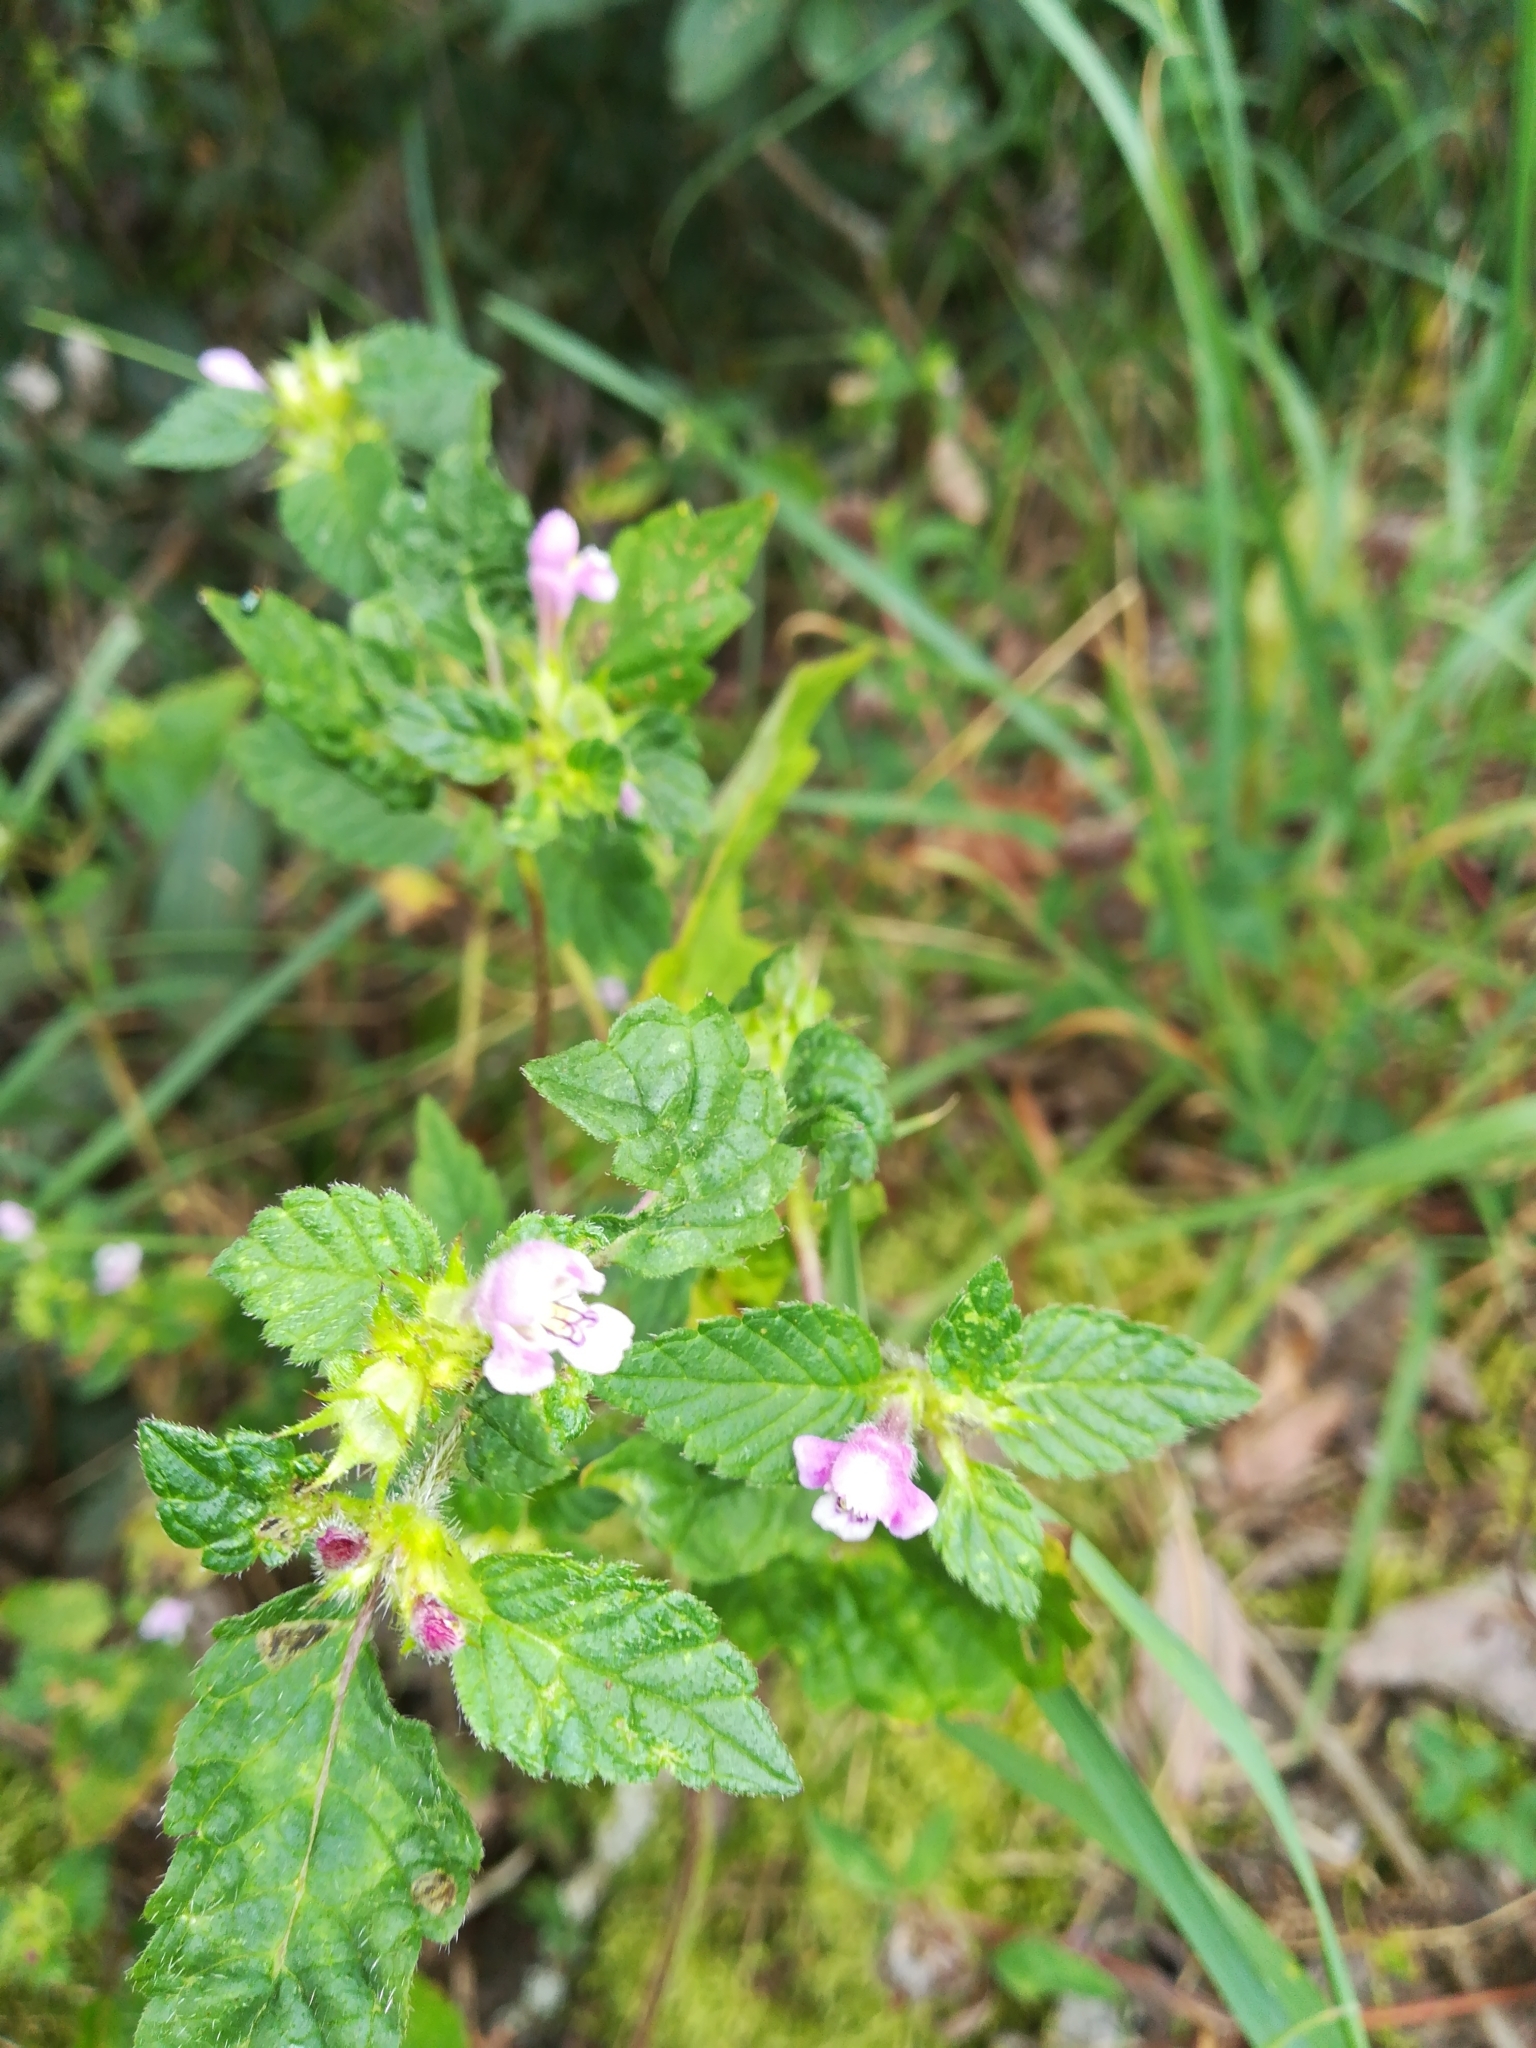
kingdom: Plantae
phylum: Tracheophyta
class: Magnoliopsida
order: Lamiales
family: Lamiaceae
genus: Galeopsis
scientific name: Galeopsis tetrahit
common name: Common hemp-nettle
